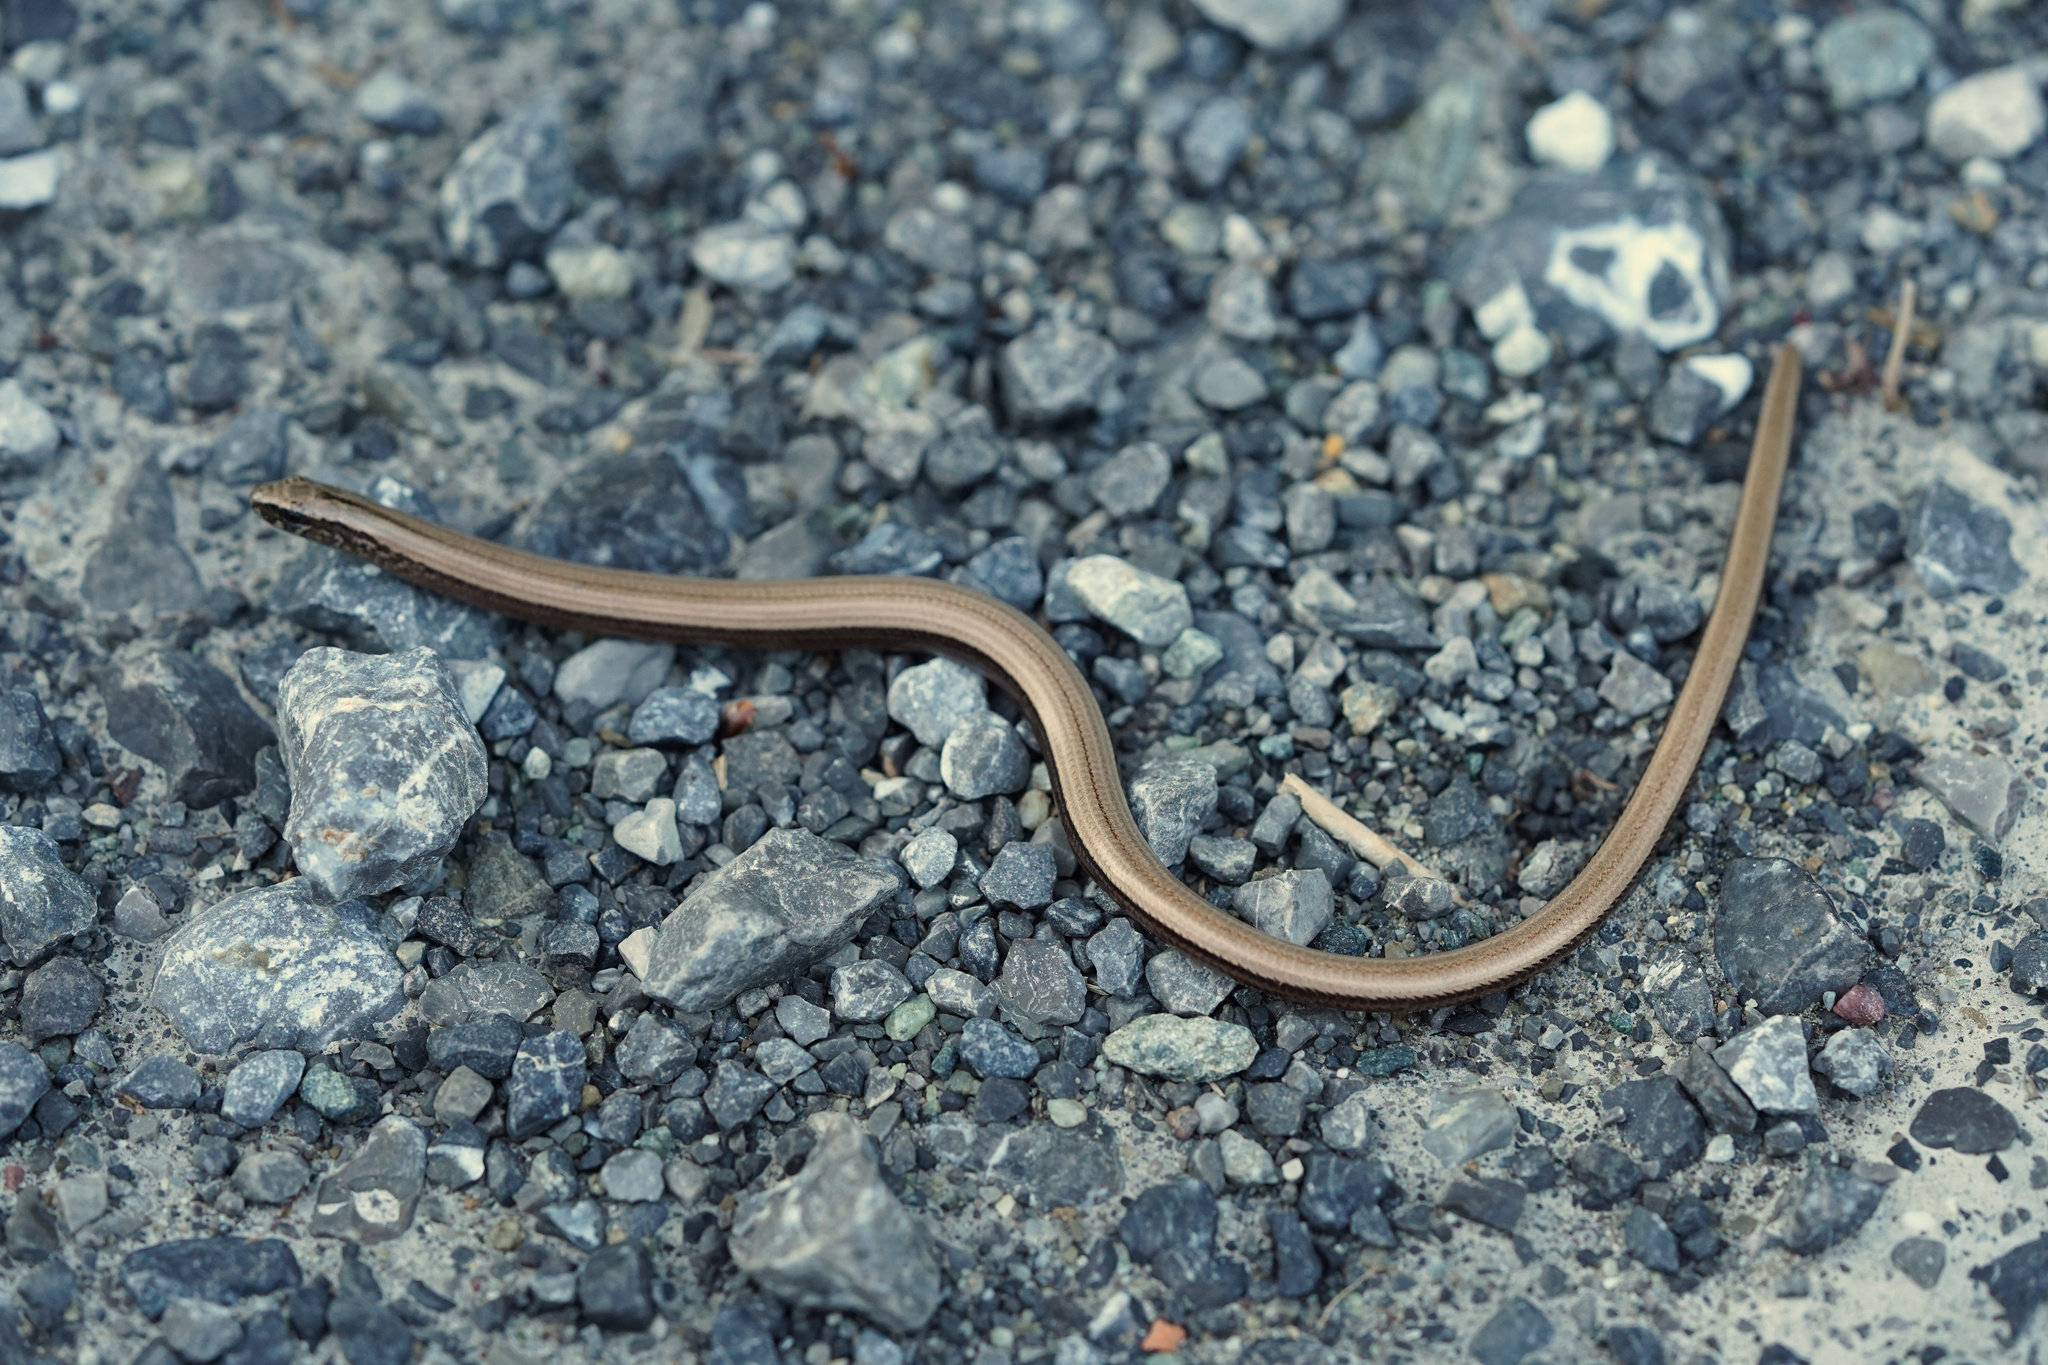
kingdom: Animalia
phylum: Chordata
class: Squamata
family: Anguidae
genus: Anguis
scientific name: Anguis fragilis
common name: Slow worm
